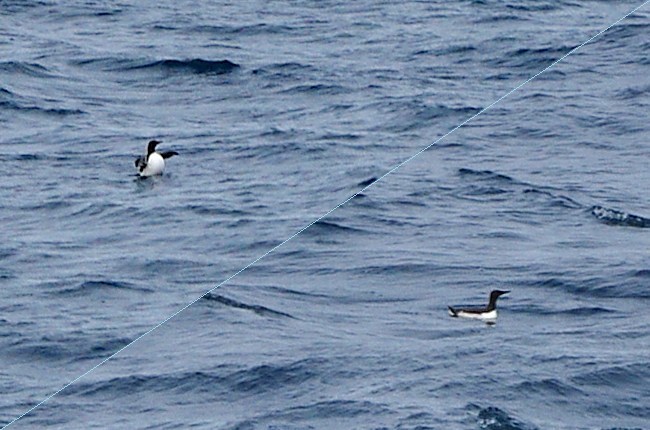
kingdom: Animalia
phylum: Chordata
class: Aves
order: Charadriiformes
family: Alcidae
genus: Uria
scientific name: Uria aalge
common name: Common murre
